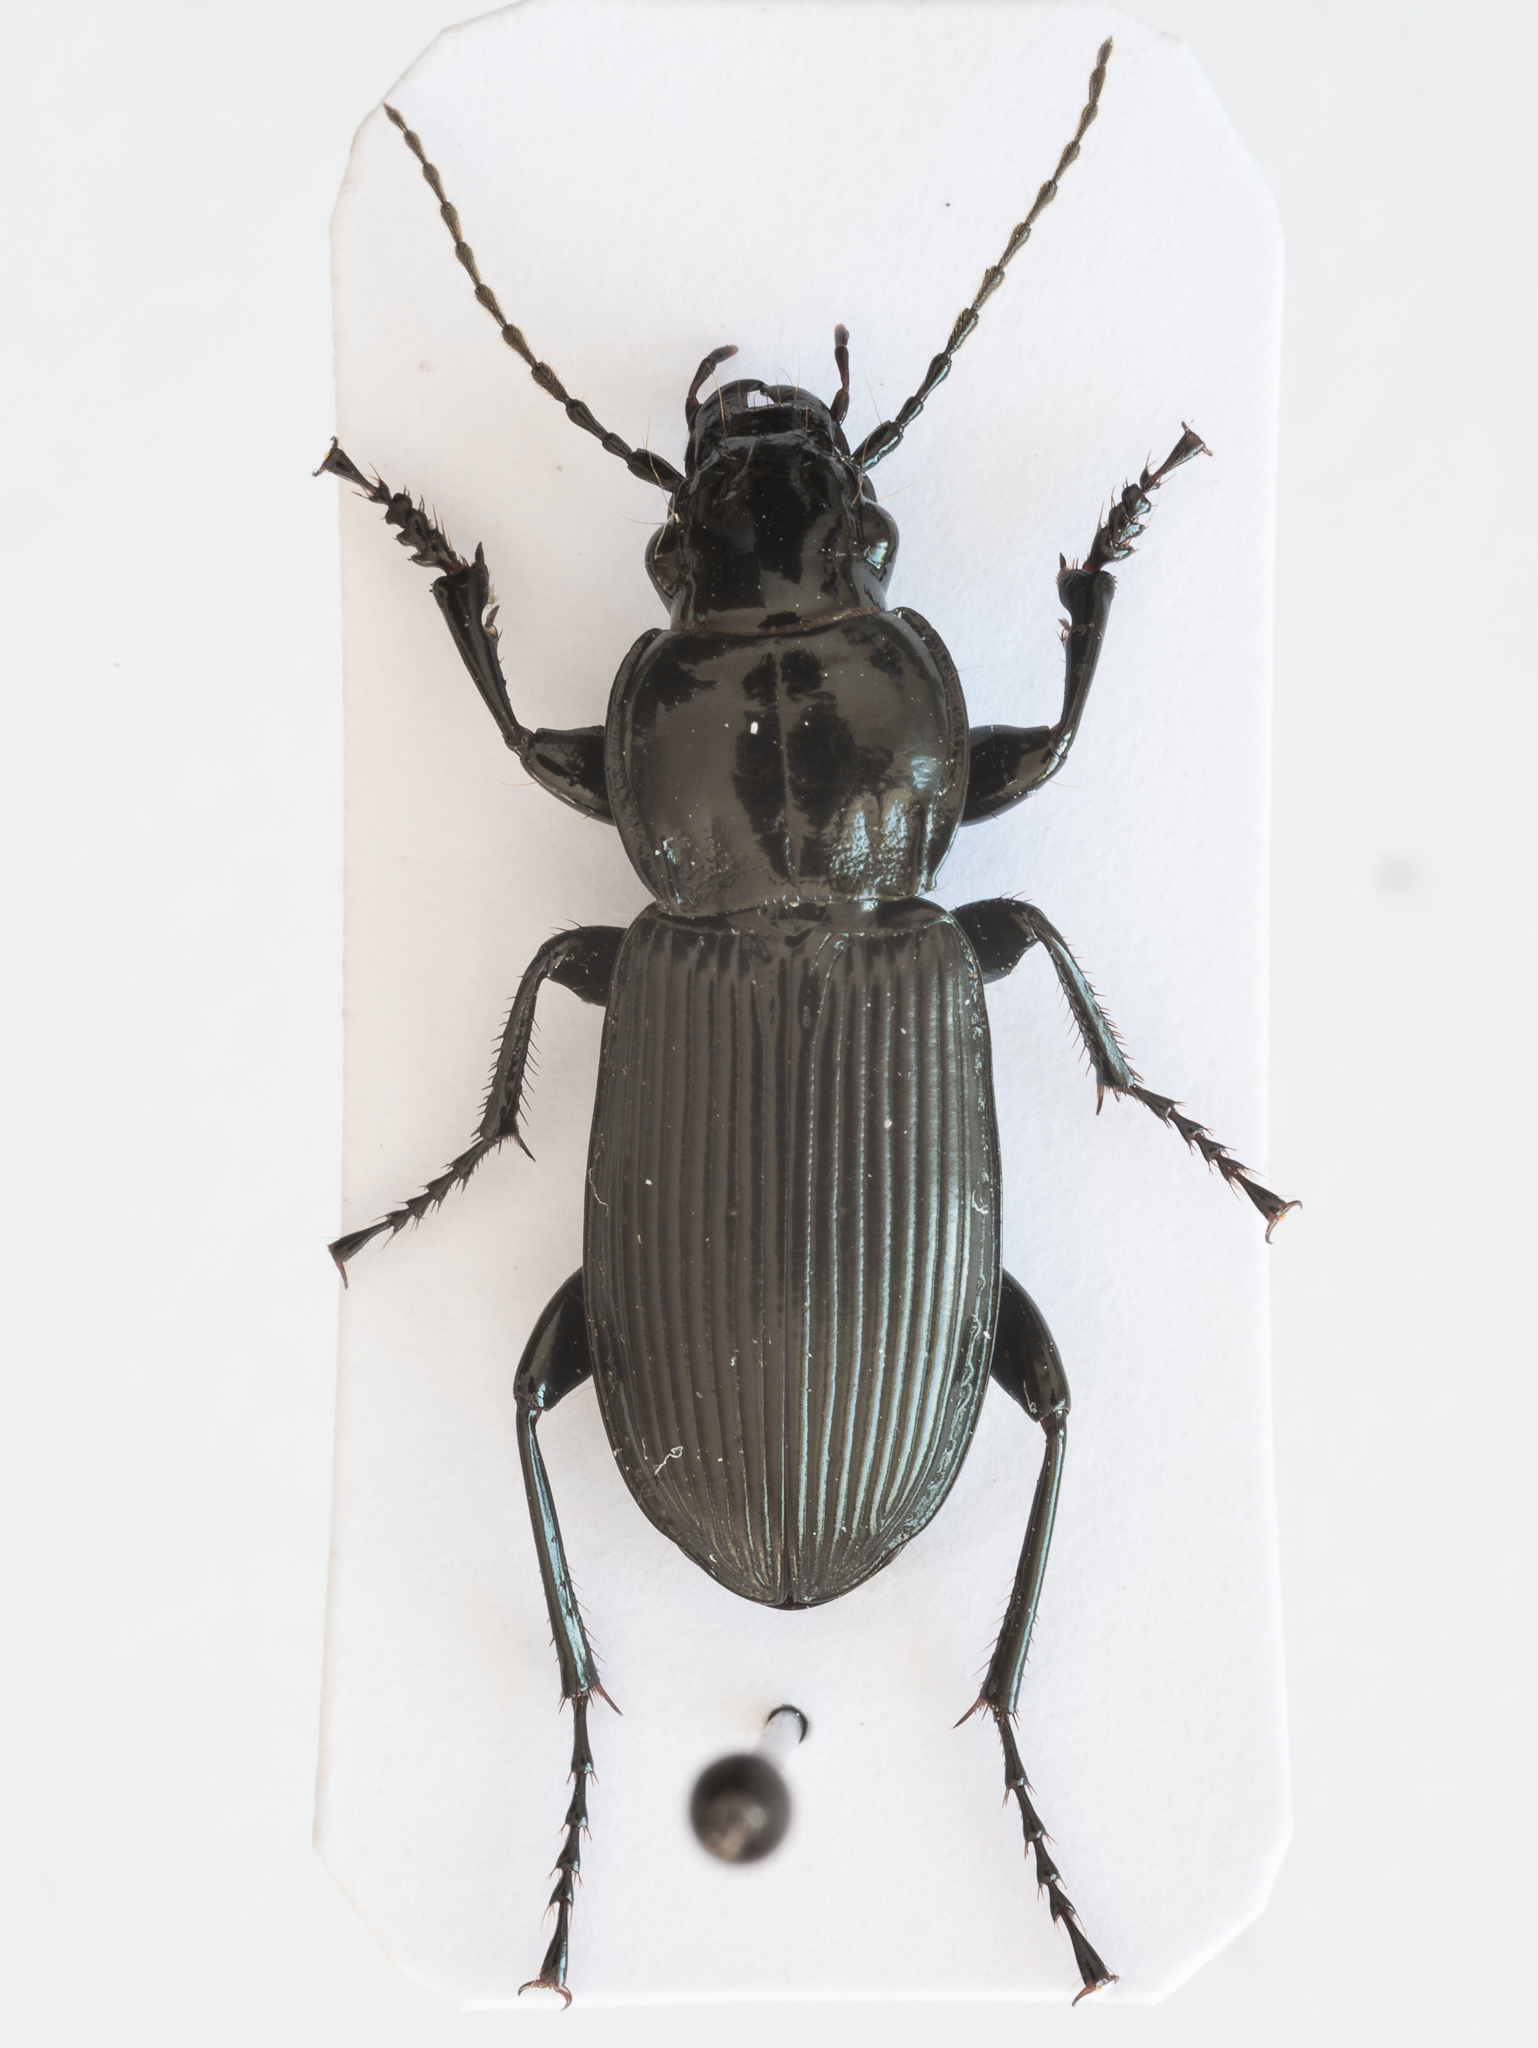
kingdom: Animalia
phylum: Arthropoda
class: Insecta
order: Coleoptera
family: Carabidae
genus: Pterostichus
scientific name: Pterostichus melanarius
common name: European dark harp ground beetle
